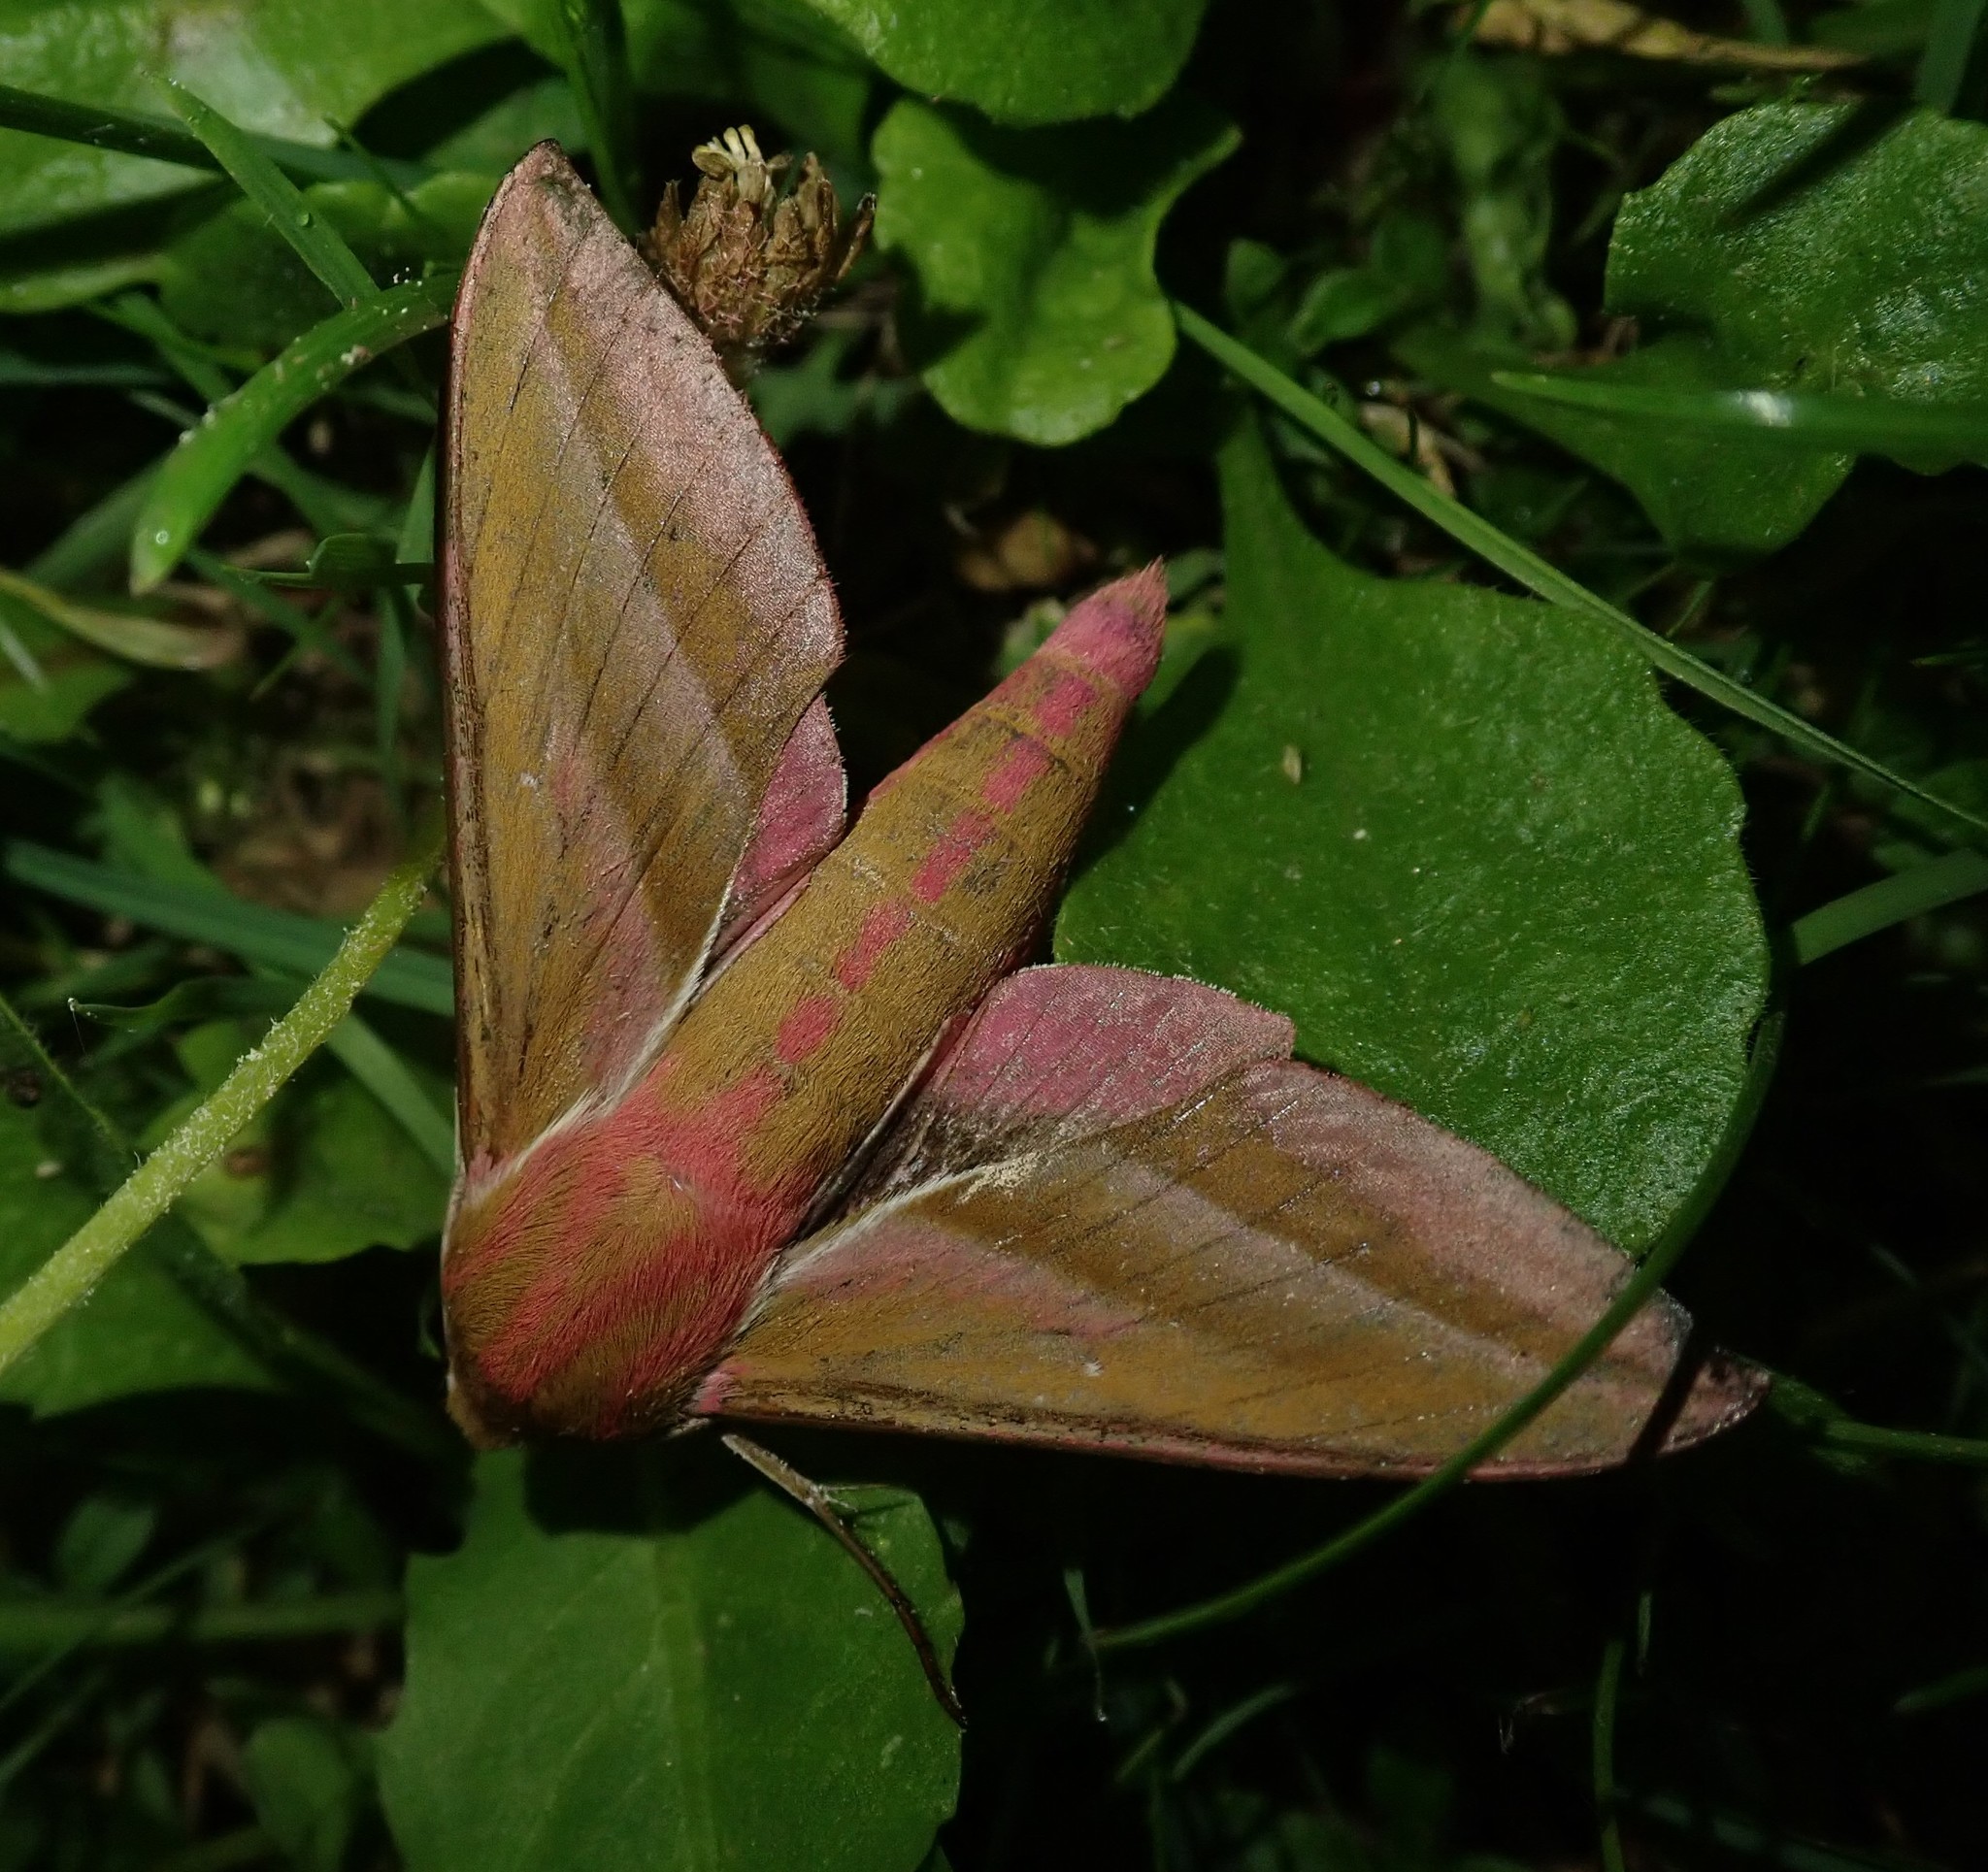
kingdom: Animalia
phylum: Arthropoda
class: Insecta
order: Lepidoptera
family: Sphingidae
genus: Deilephila
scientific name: Deilephila elpenor
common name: Elephant hawk-moth
